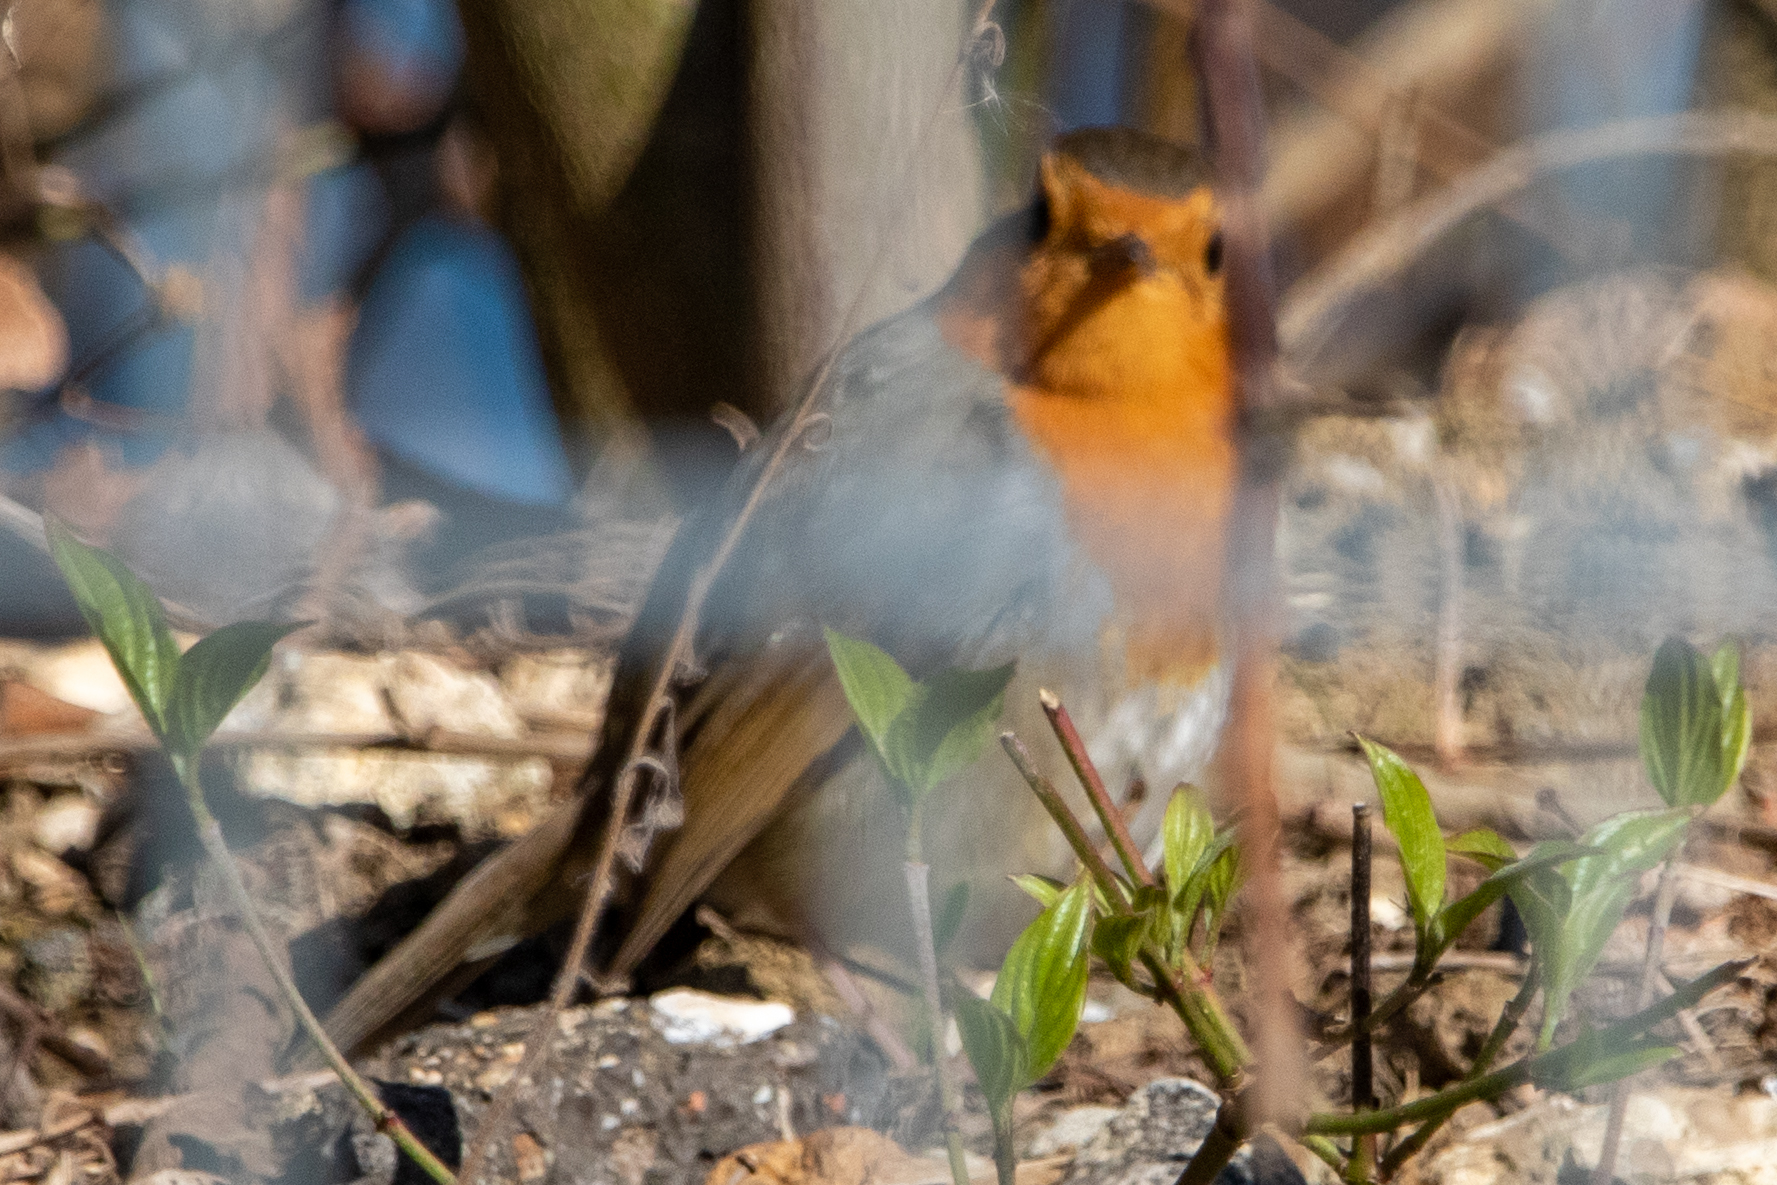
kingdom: Animalia
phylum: Chordata
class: Aves
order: Passeriformes
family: Muscicapidae
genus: Erithacus
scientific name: Erithacus rubecula
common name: European robin
